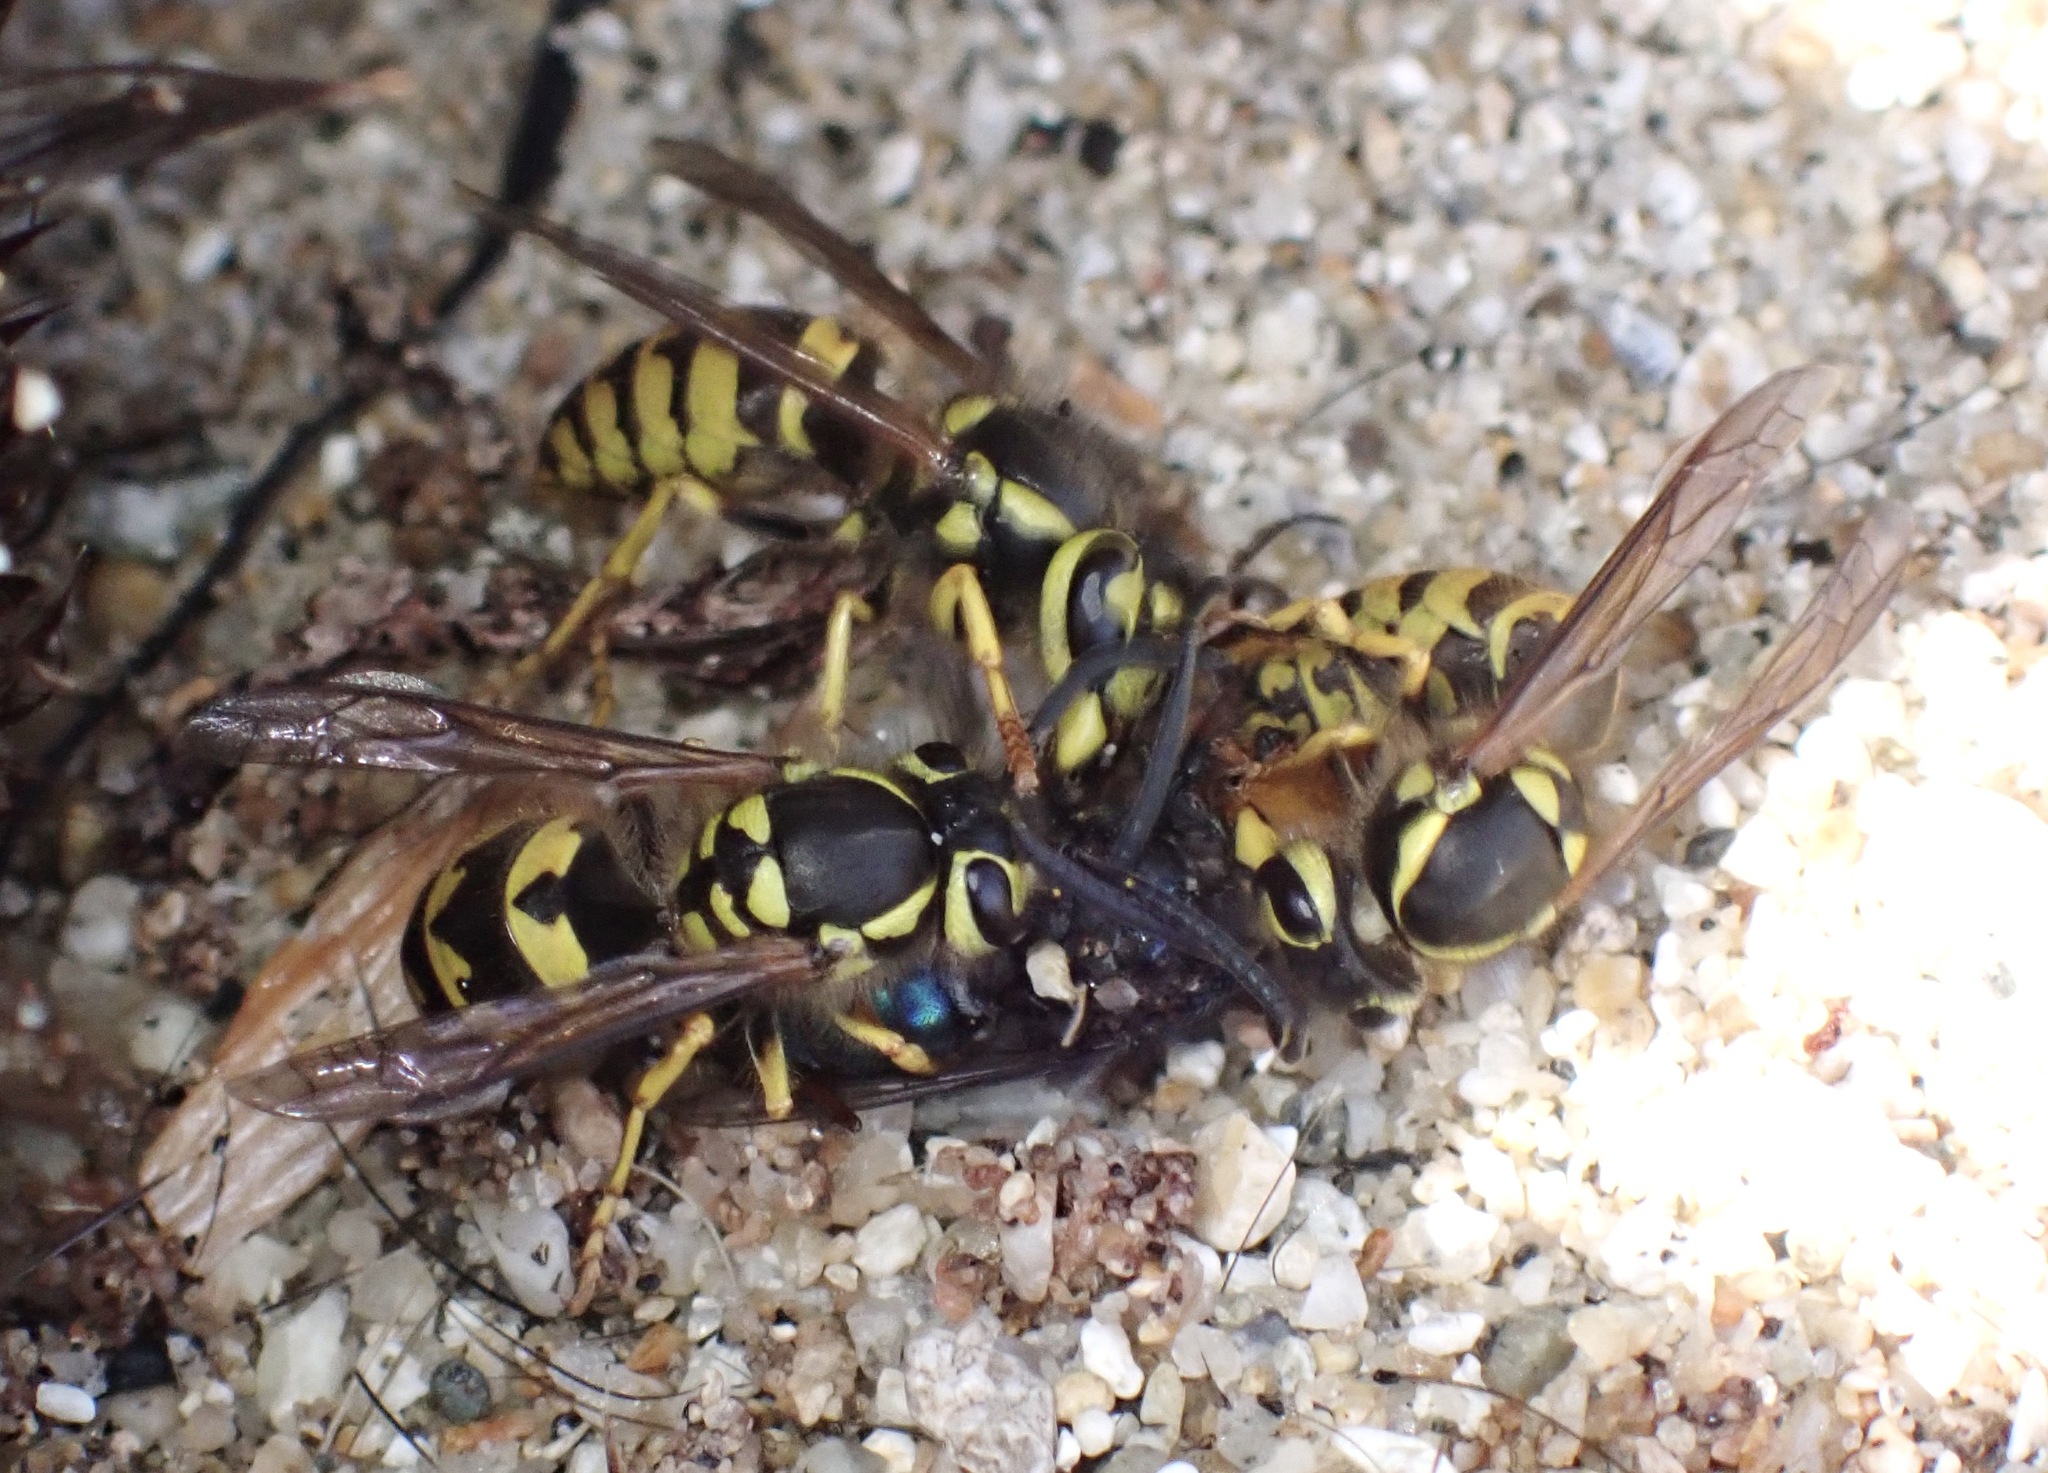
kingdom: Animalia
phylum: Arthropoda
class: Insecta
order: Hymenoptera
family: Vespidae
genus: Vespula
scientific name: Vespula pensylvanica
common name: Western yellowjacket
